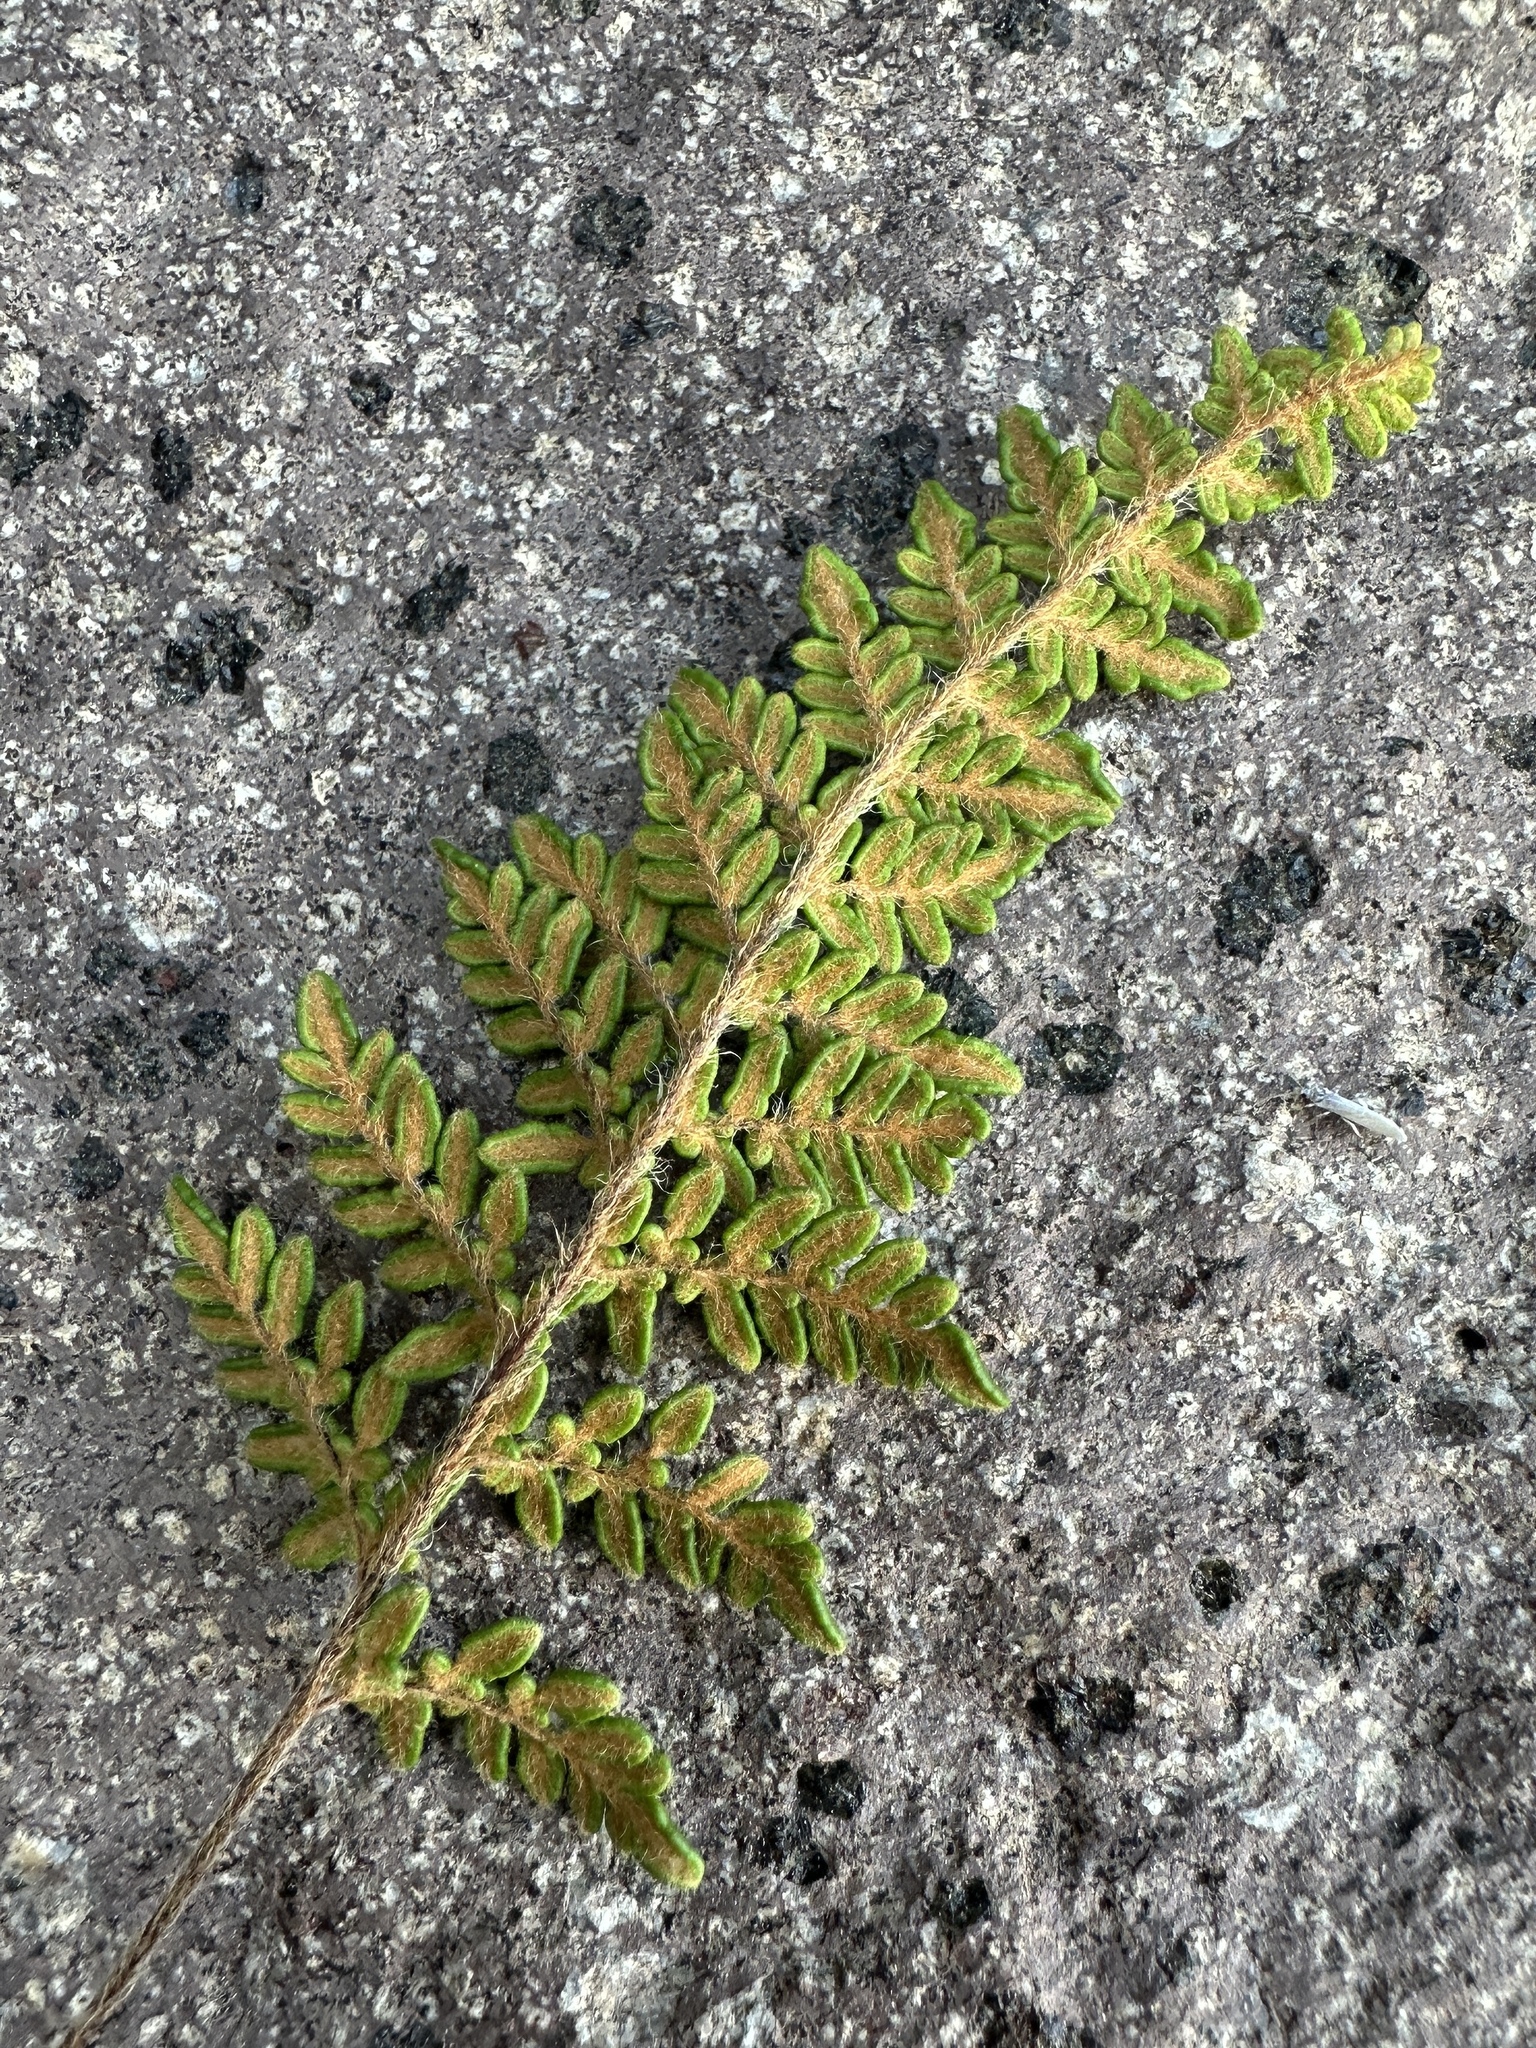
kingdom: Plantae
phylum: Tracheophyta
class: Polypodiopsida
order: Polypodiales
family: Pteridaceae
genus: Myriopteris
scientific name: Myriopteris gracillima
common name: Lace fern
